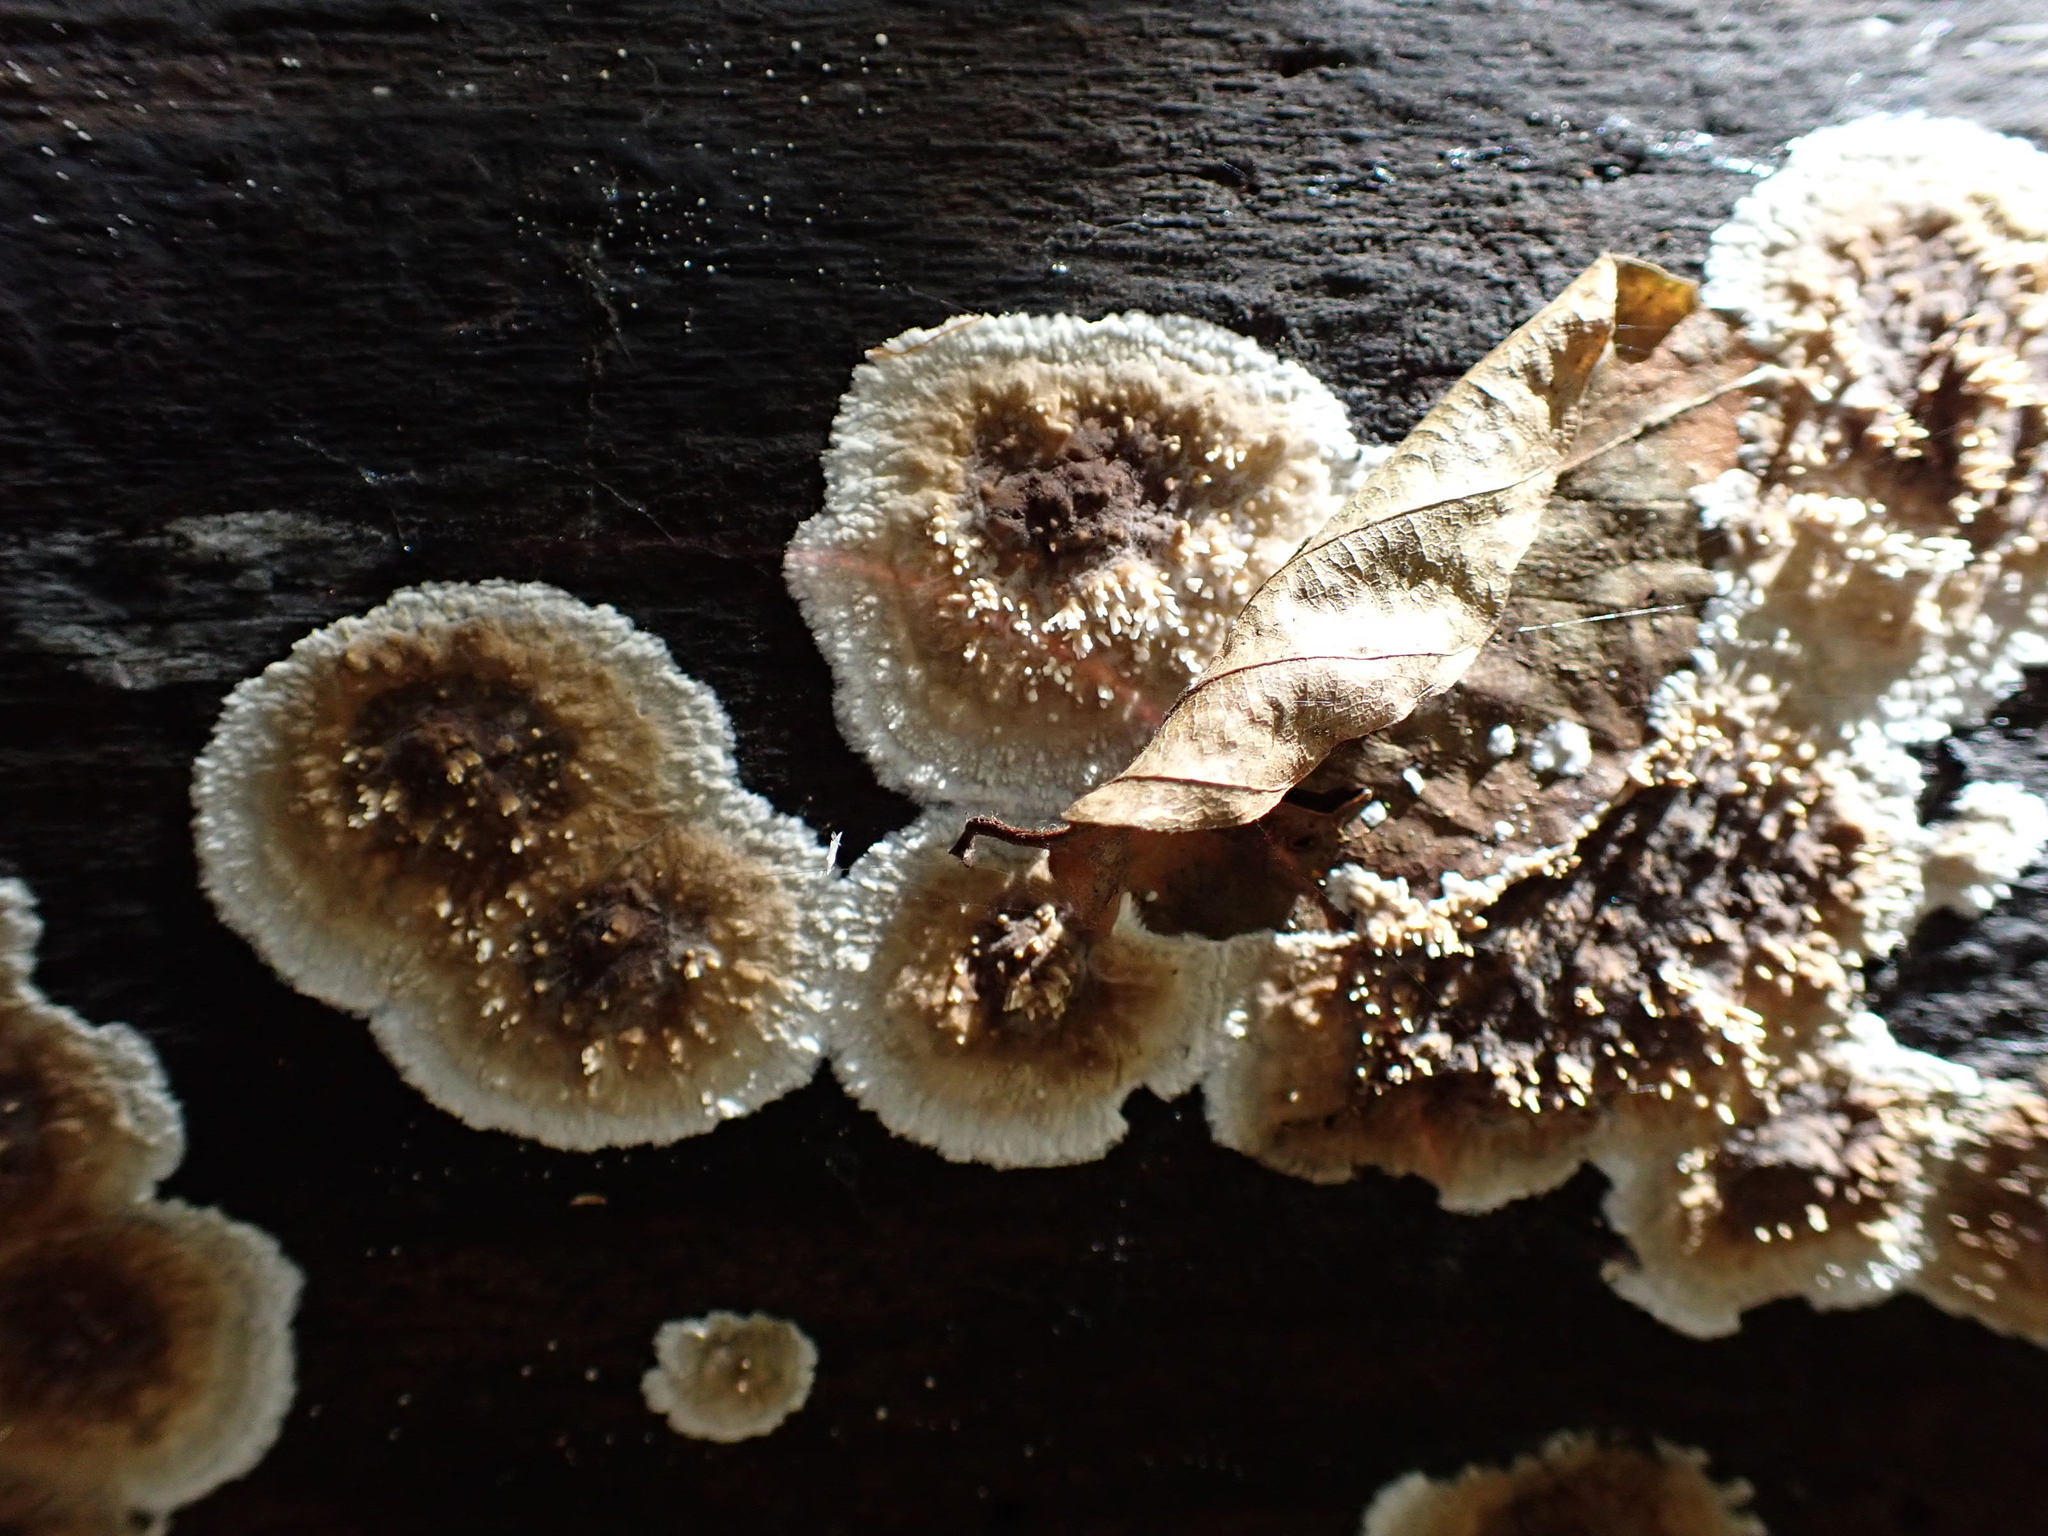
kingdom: Fungi
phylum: Basidiomycota
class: Agaricomycetes
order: Boletales
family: Coniophoraceae
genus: Coniophora
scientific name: Coniophora puteana
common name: Cellar fungus
